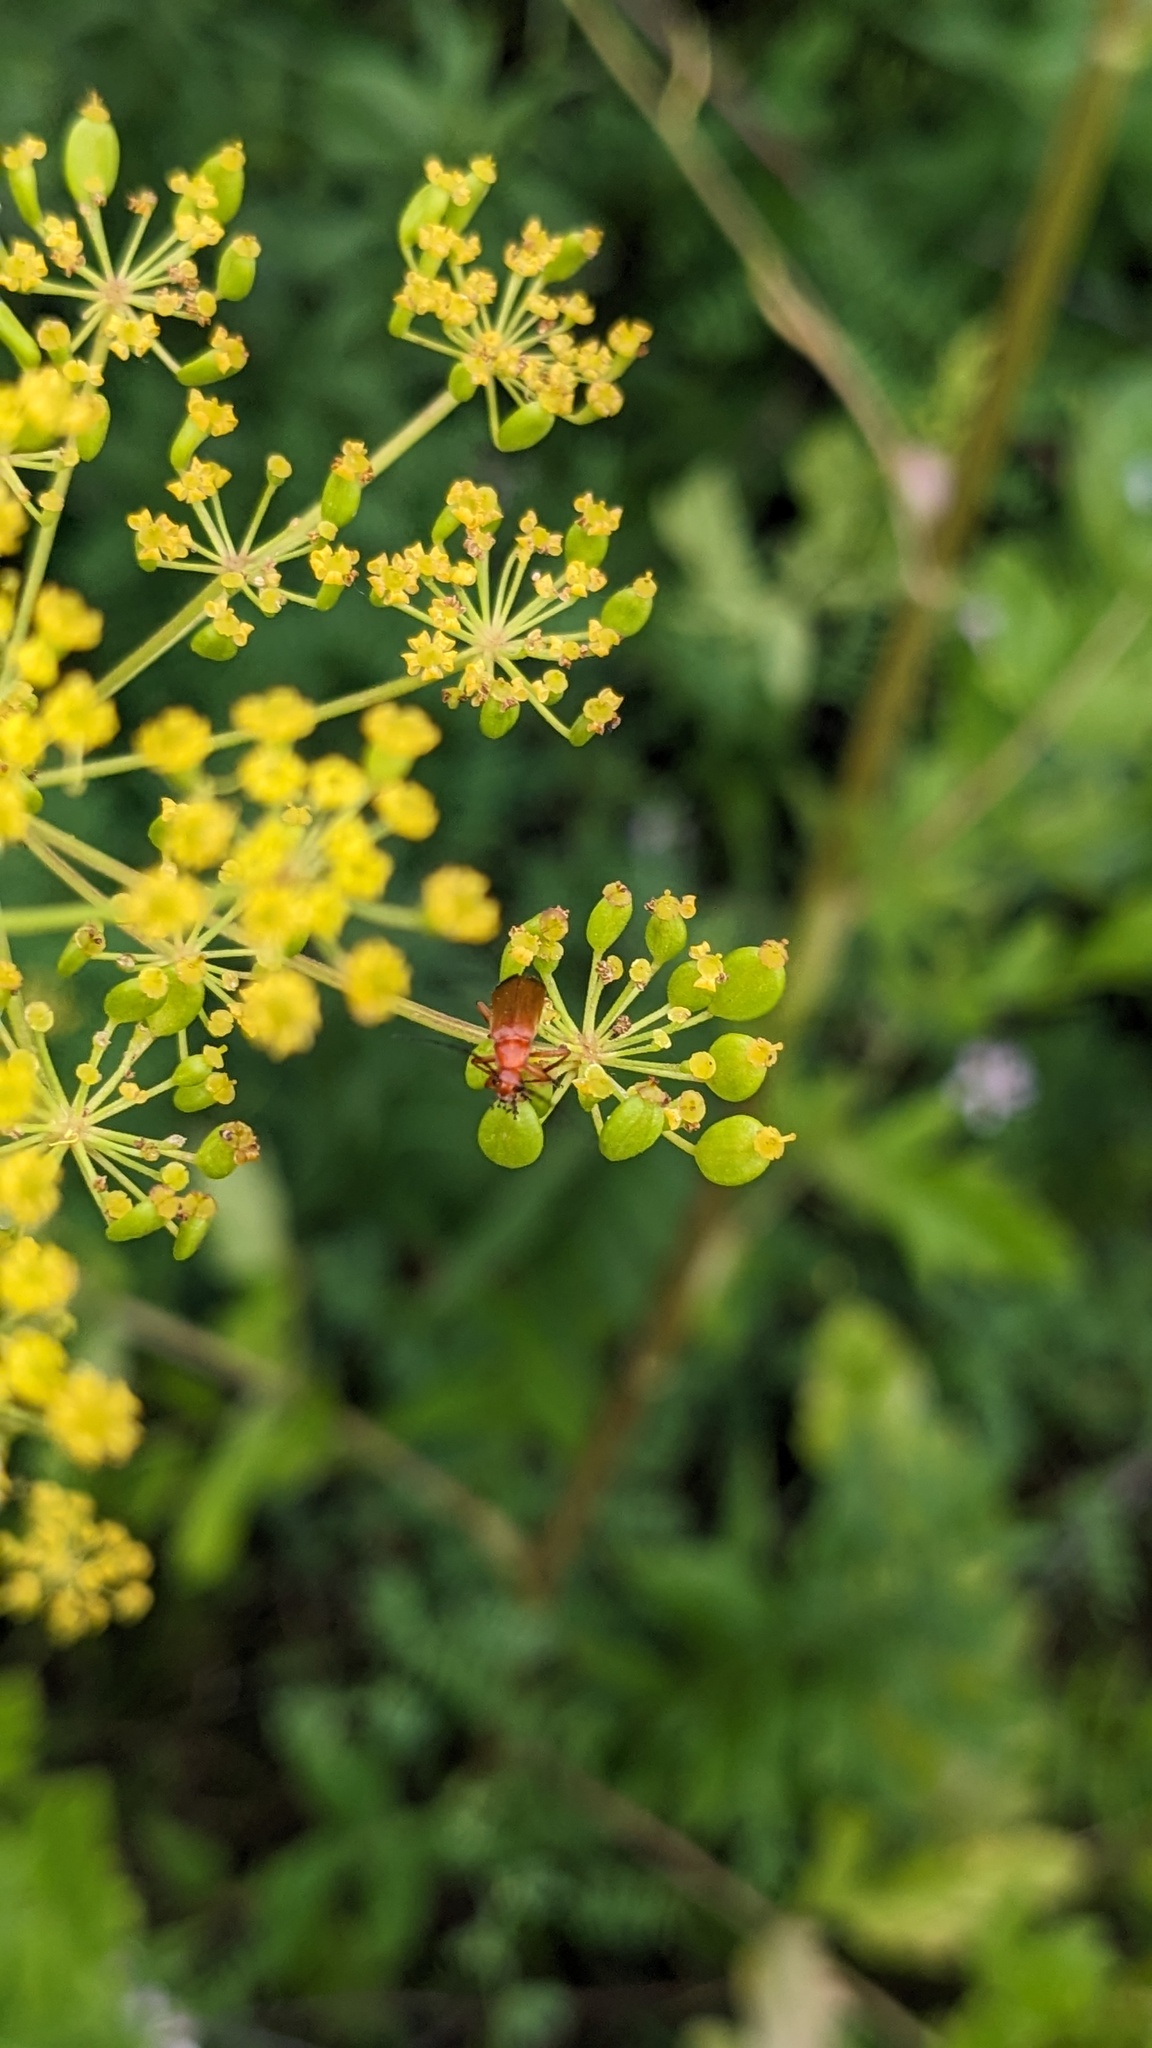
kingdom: Animalia
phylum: Arthropoda
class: Insecta
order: Coleoptera
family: Cantharidae
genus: Rhagonycha
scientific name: Rhagonycha fulva
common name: Common red soldier beetle
